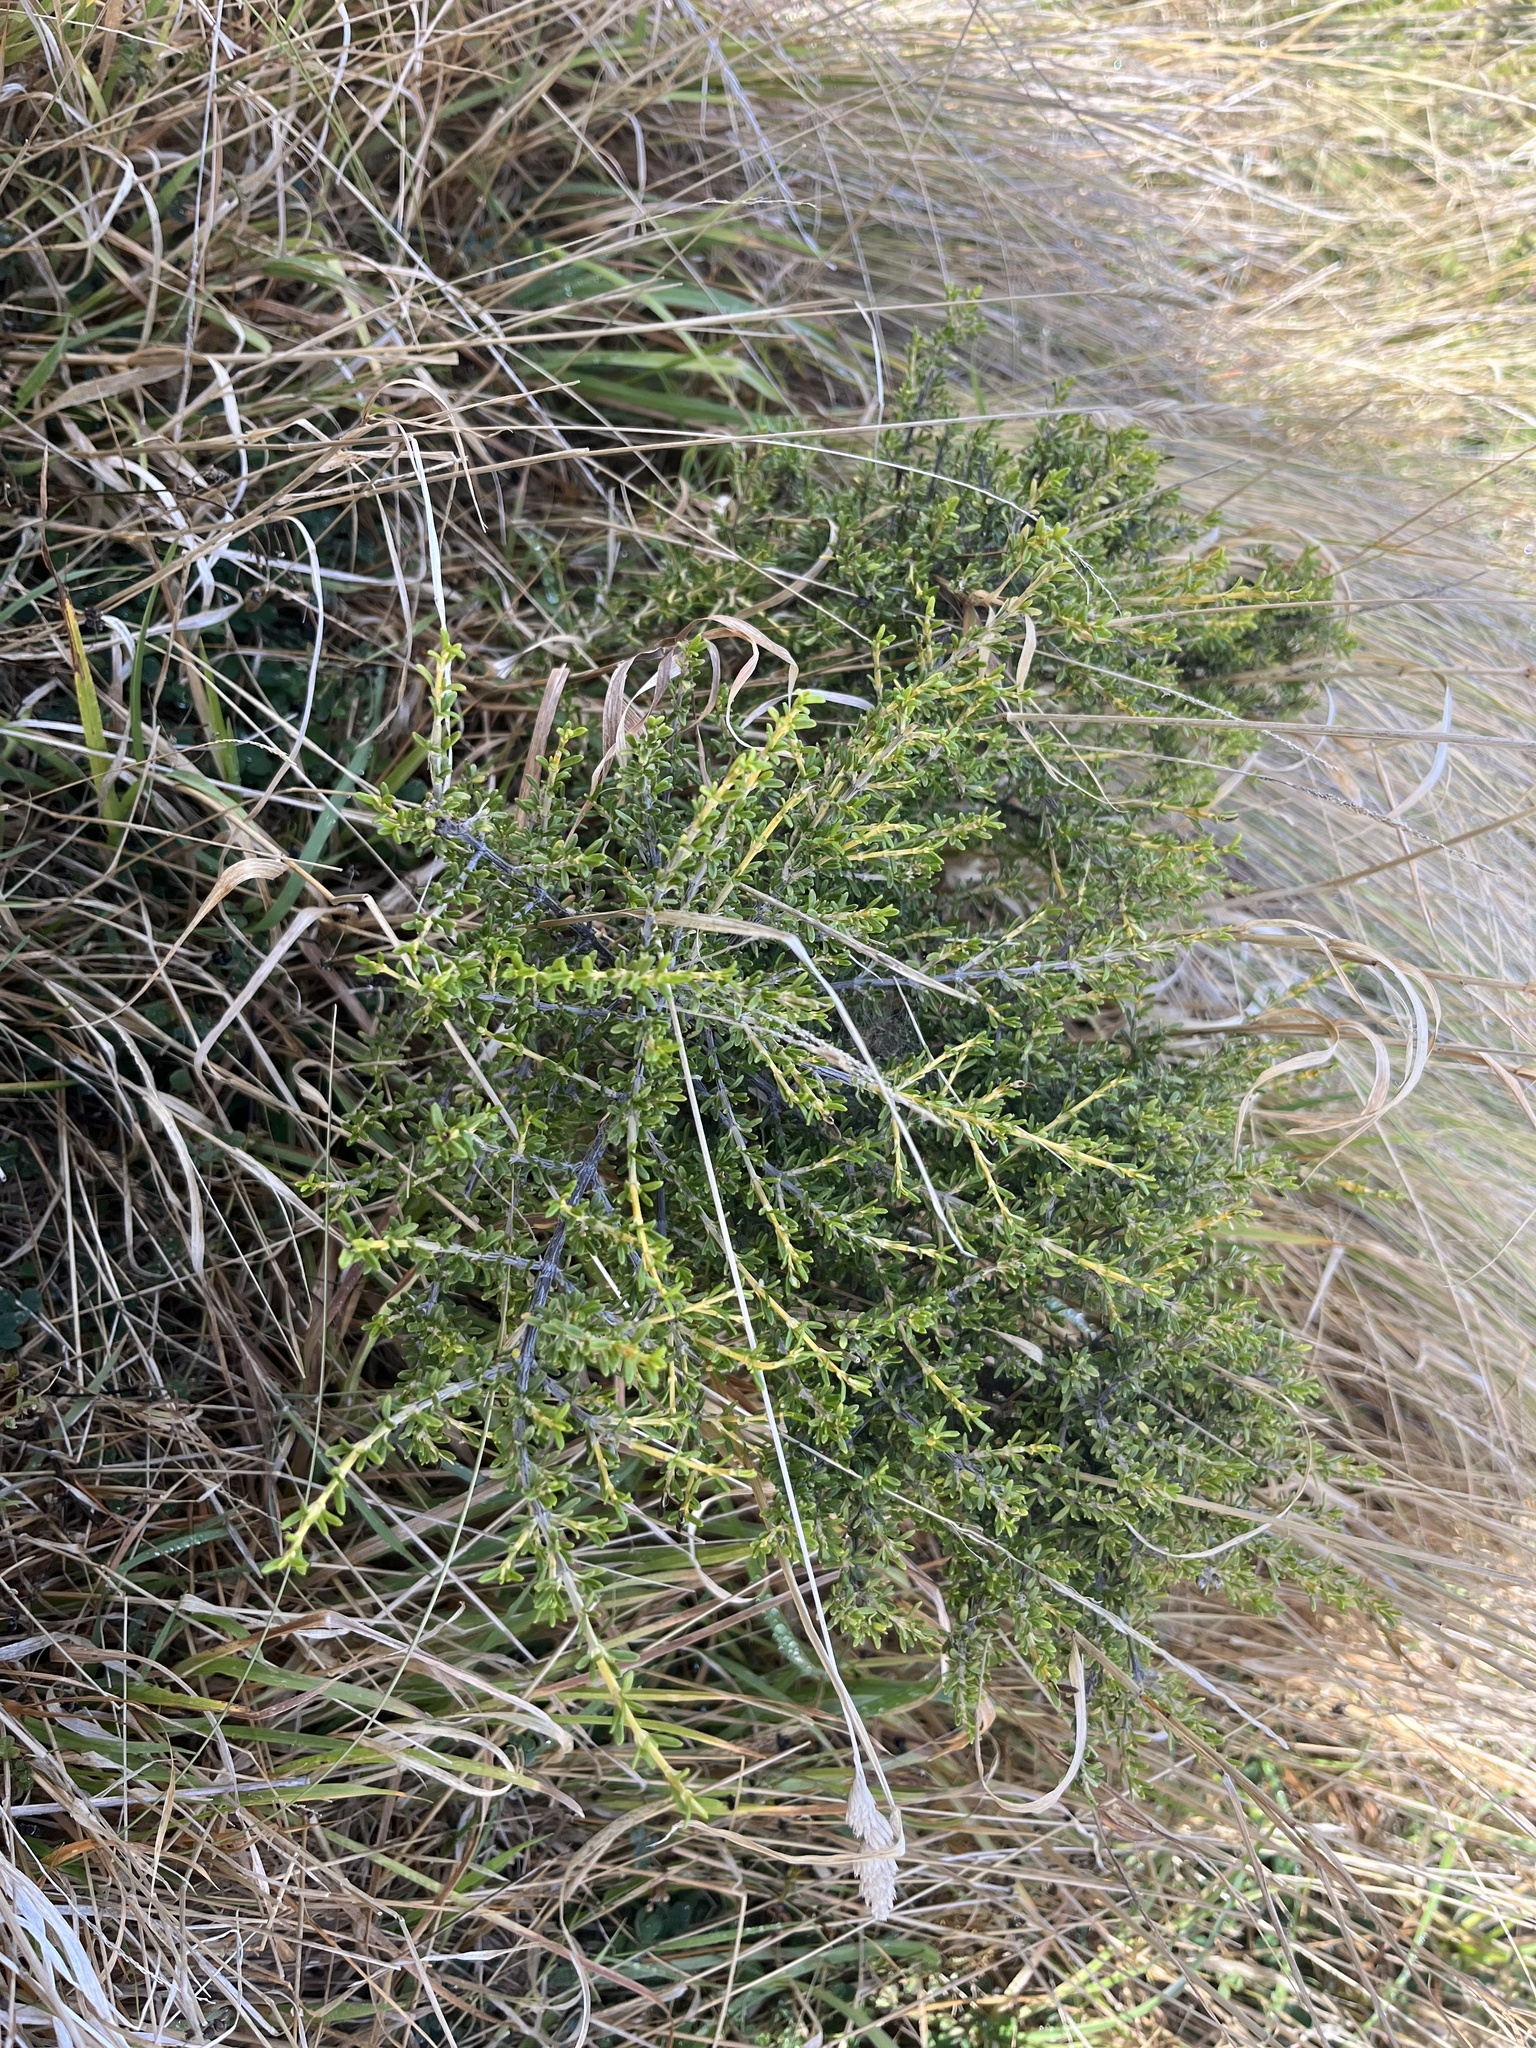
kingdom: Plantae
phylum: Tracheophyta
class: Magnoliopsida
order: Asterales
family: Asteraceae
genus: Olearia
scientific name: Olearia solandri
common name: Coastal daisybush
